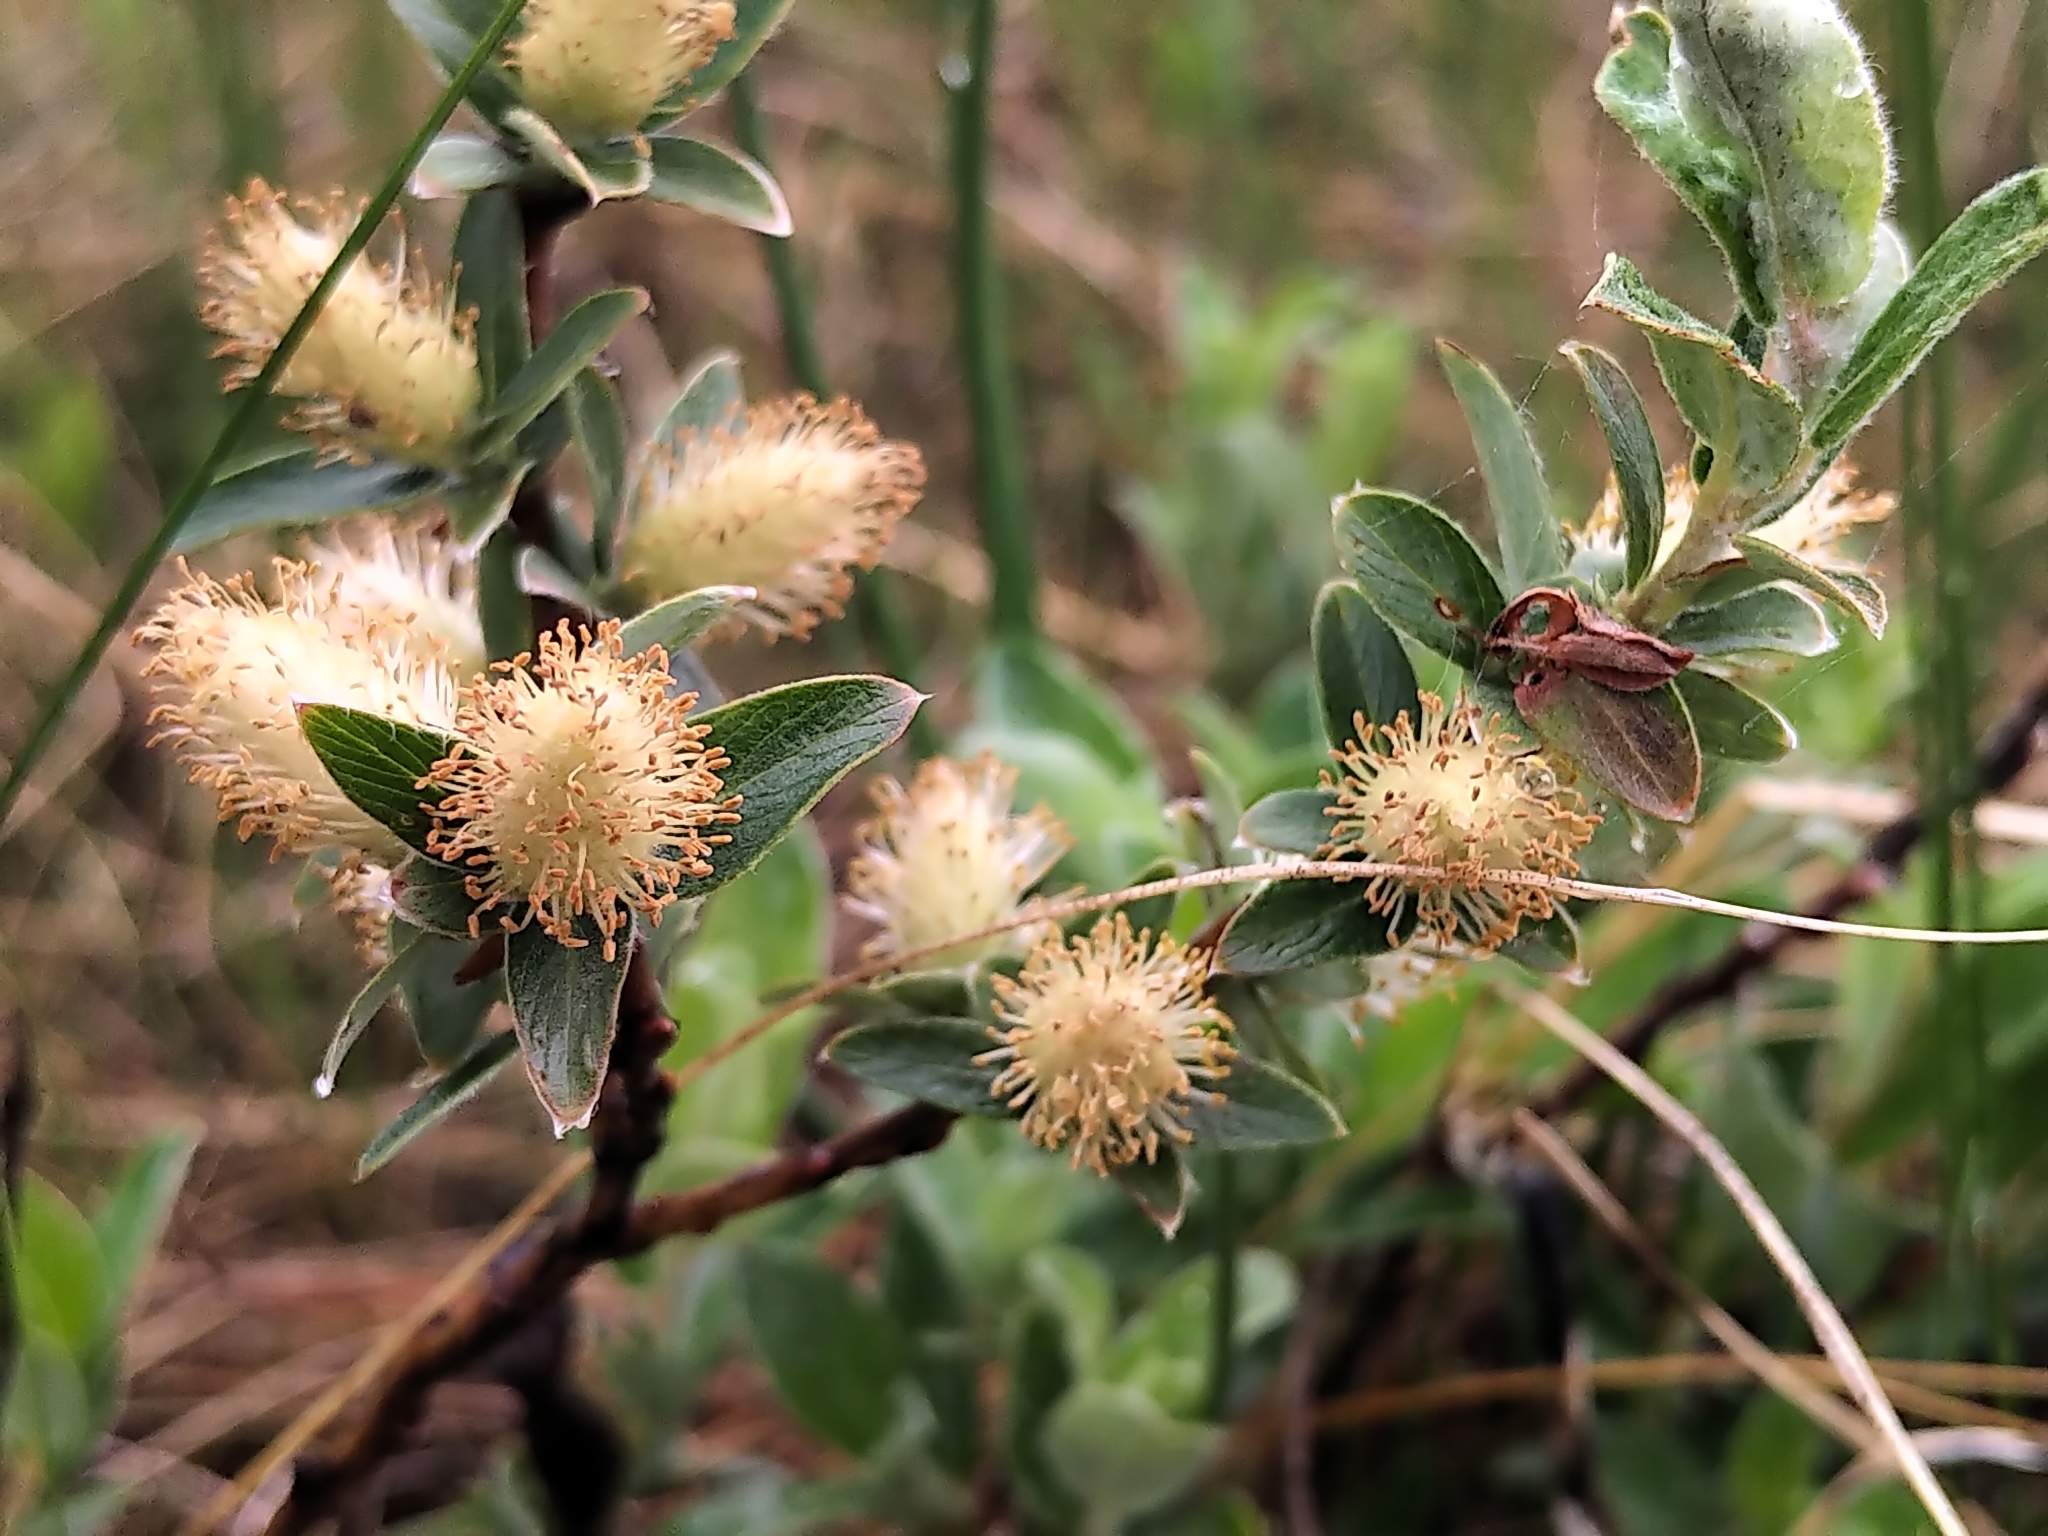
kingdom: Plantae
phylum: Tracheophyta
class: Magnoliopsida
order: Malpighiales
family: Salicaceae
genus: Salix
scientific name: Salix brachycarpa
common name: Barren-ground willow
